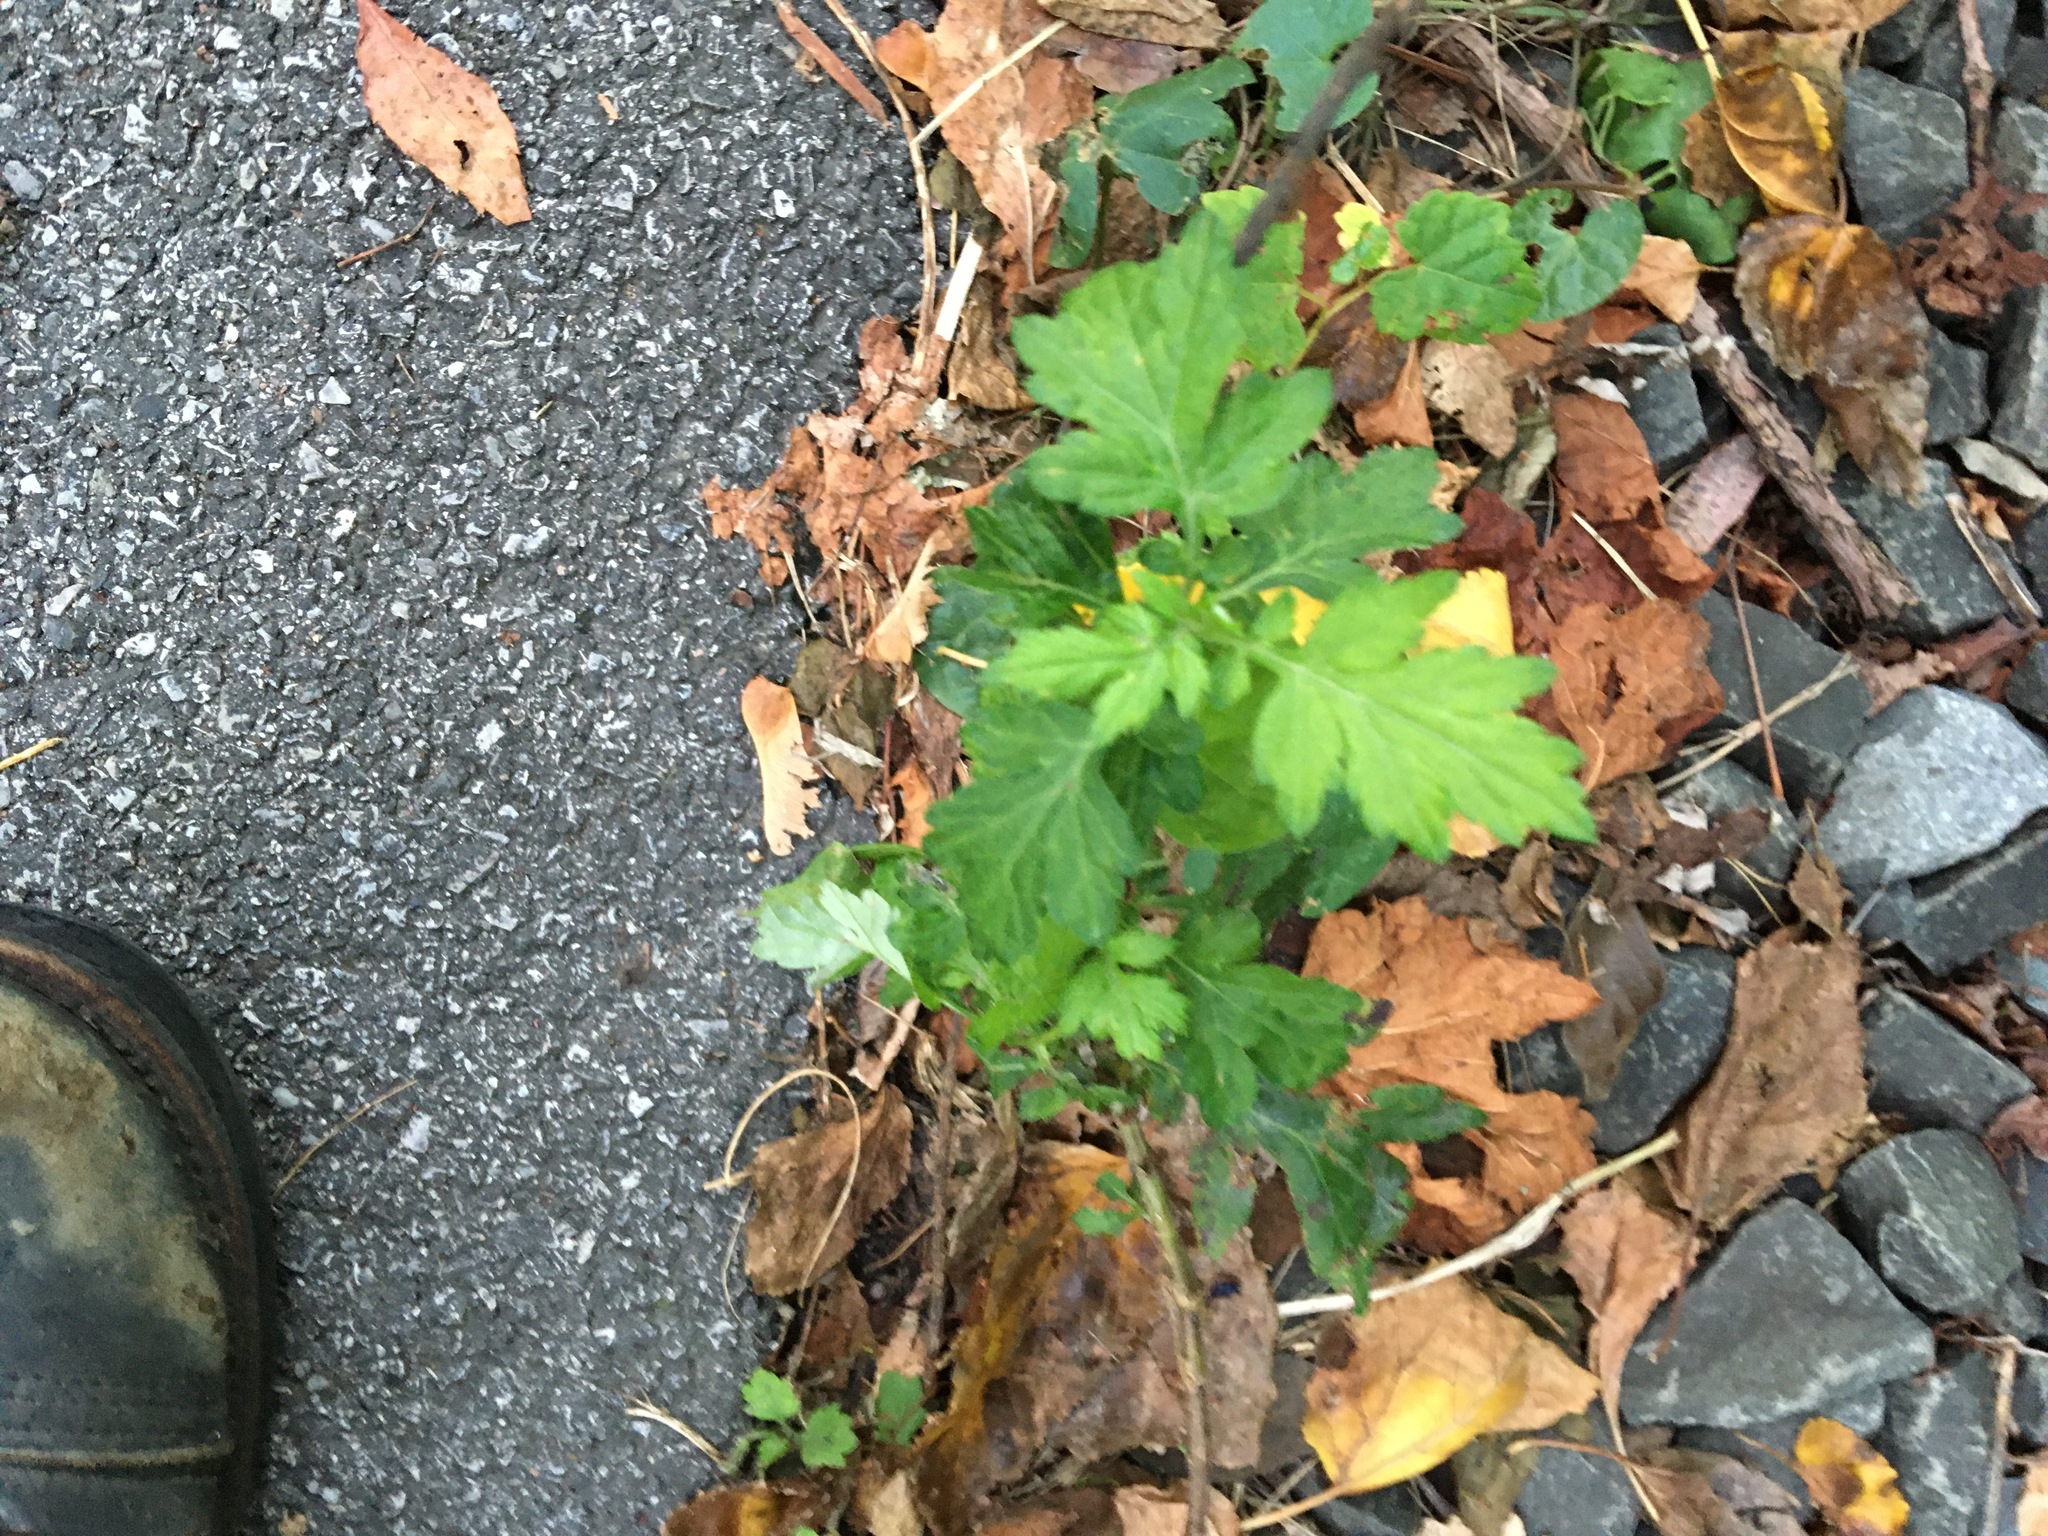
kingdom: Plantae
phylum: Tracheophyta
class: Magnoliopsida
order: Asterales
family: Asteraceae
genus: Artemisia
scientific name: Artemisia vulgaris
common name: Mugwort
